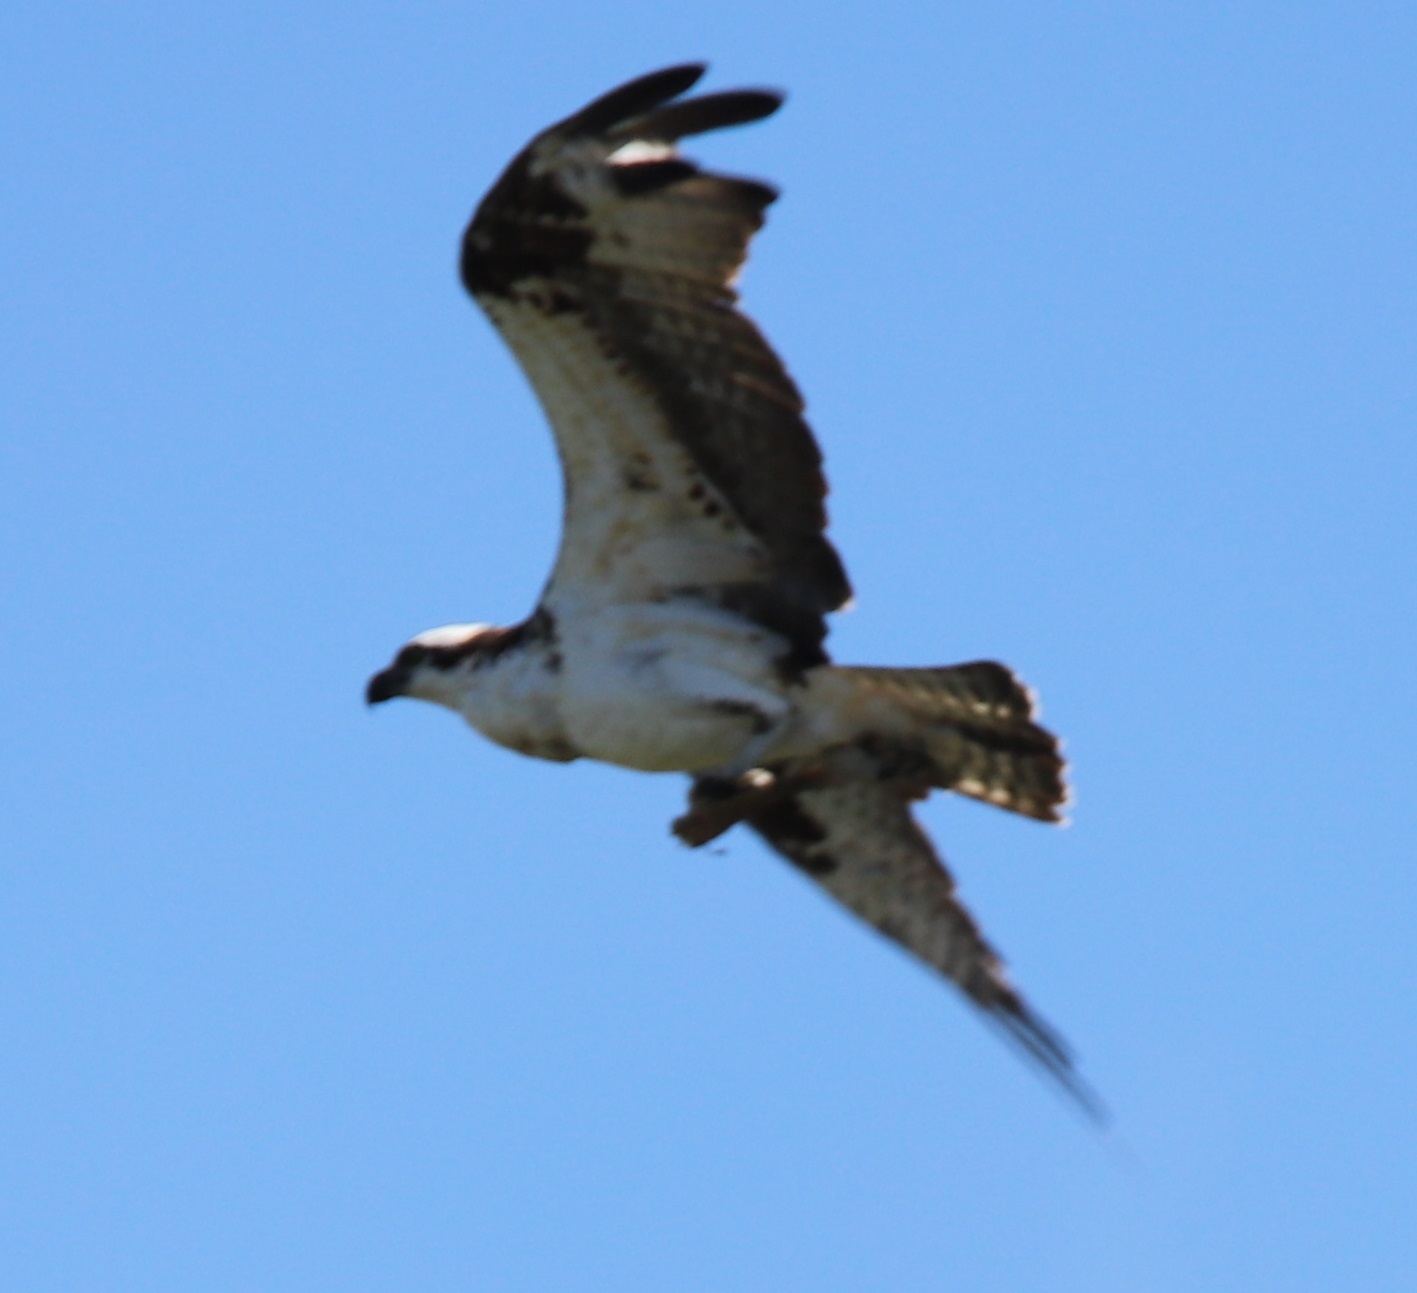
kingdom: Animalia
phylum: Chordata
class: Aves
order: Accipitriformes
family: Pandionidae
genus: Pandion
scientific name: Pandion haliaetus
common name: Osprey
